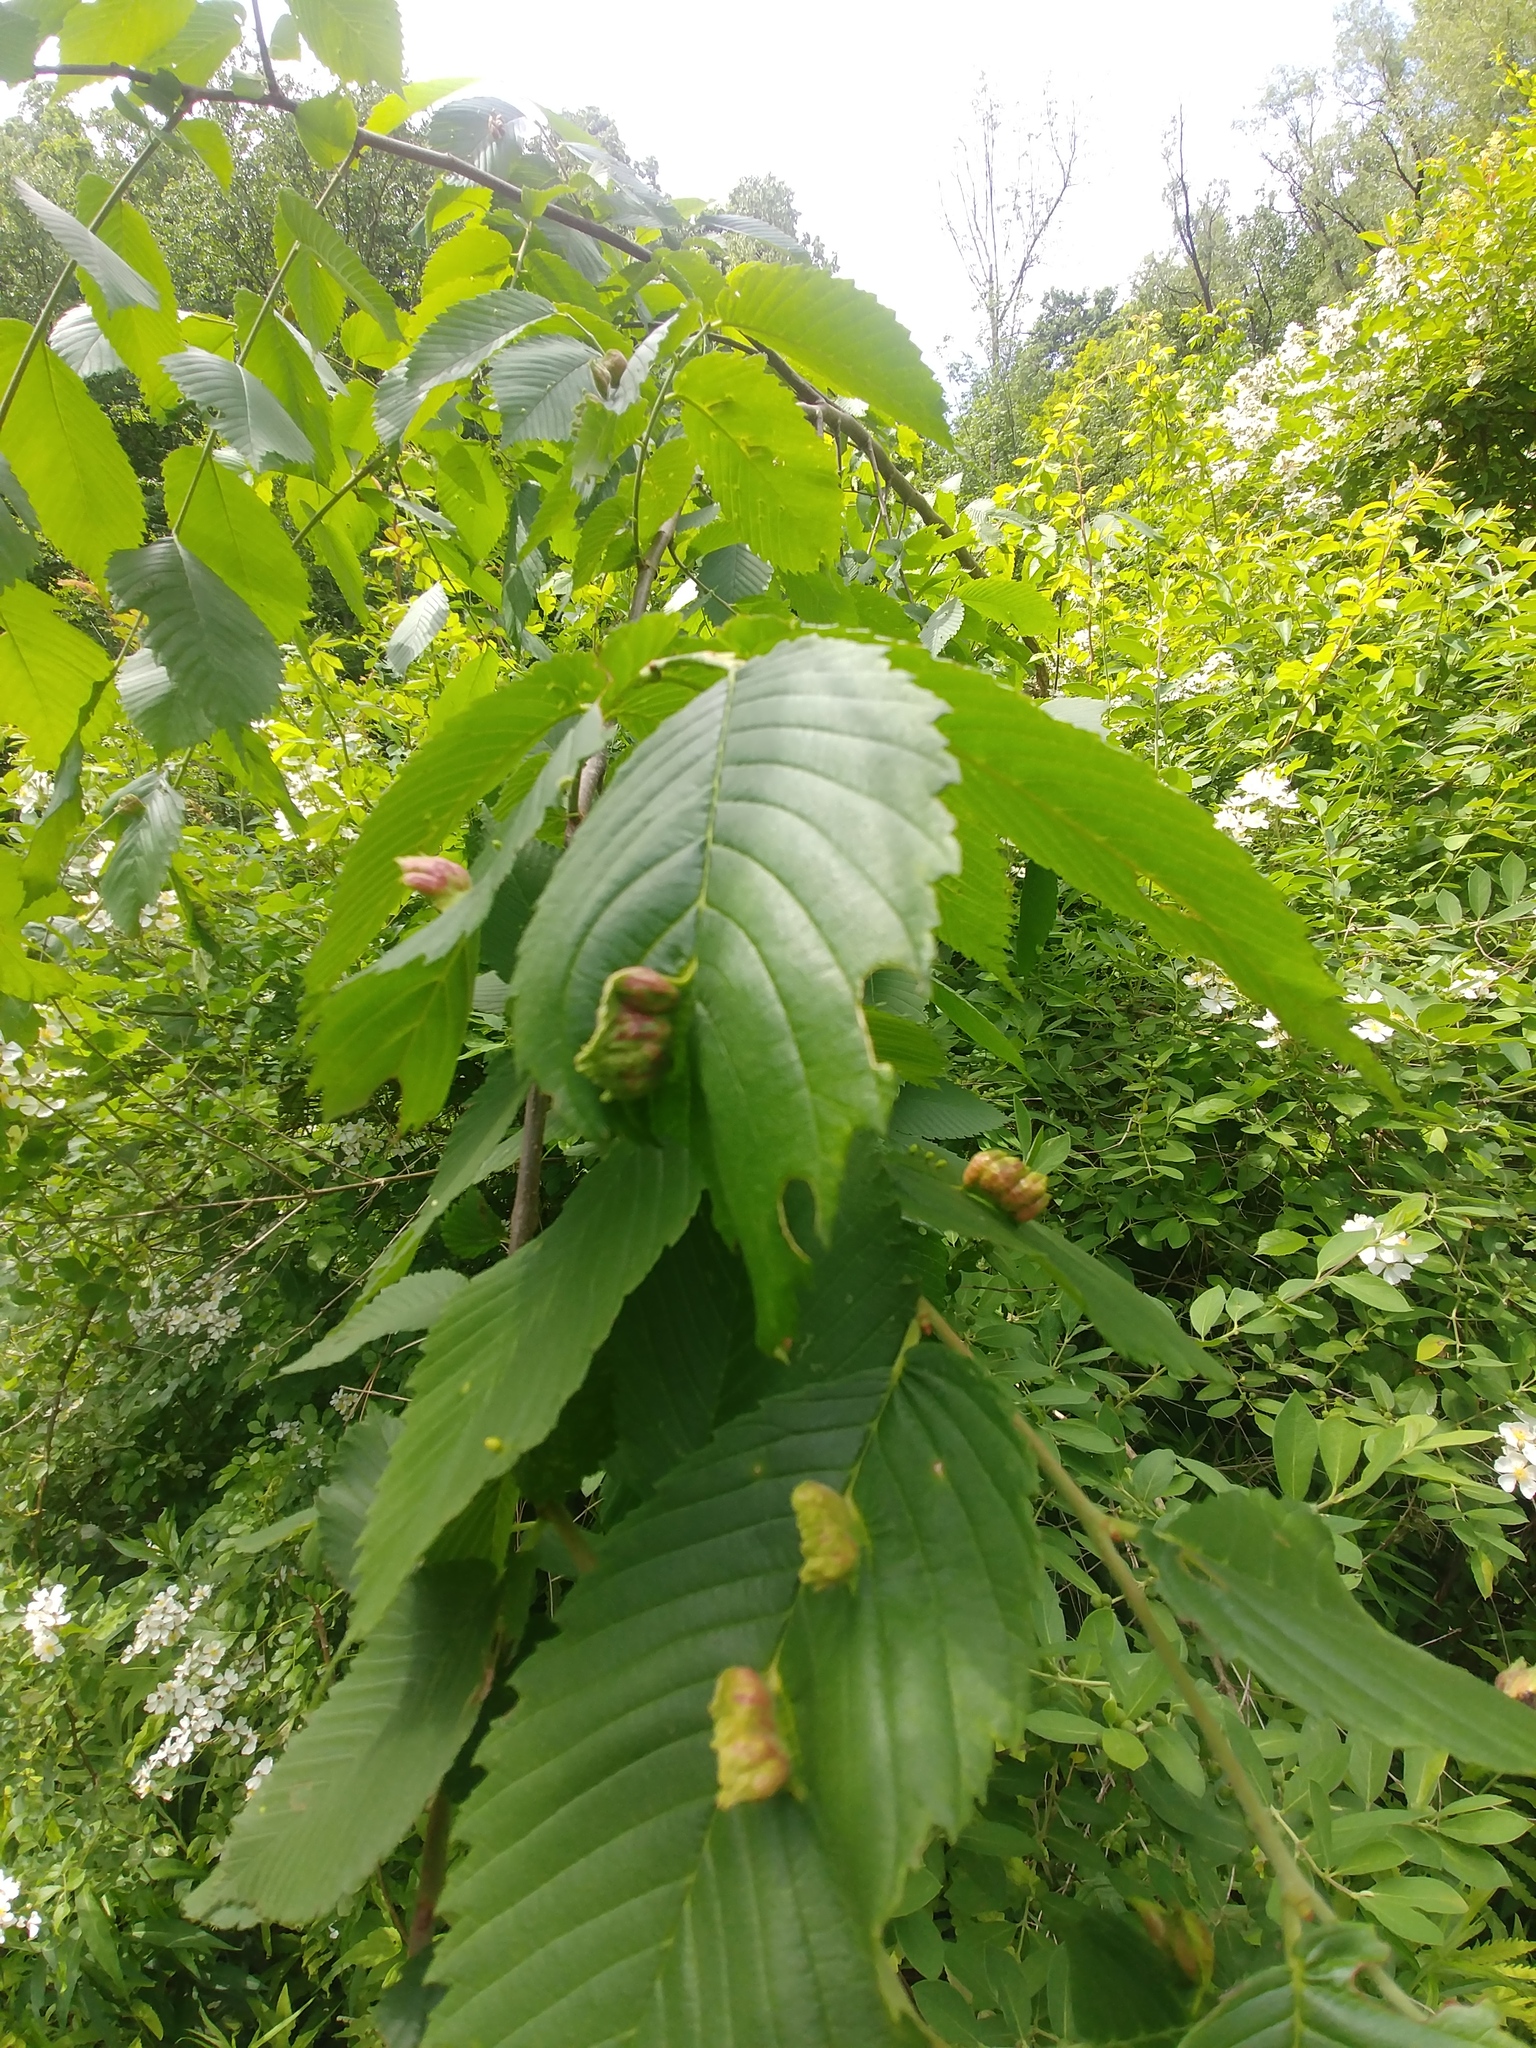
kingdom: Animalia
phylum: Arthropoda
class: Insecta
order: Hemiptera
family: Aphididae
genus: Colopha
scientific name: Colopha ulmicola
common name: Elm cockscombgall aphid
